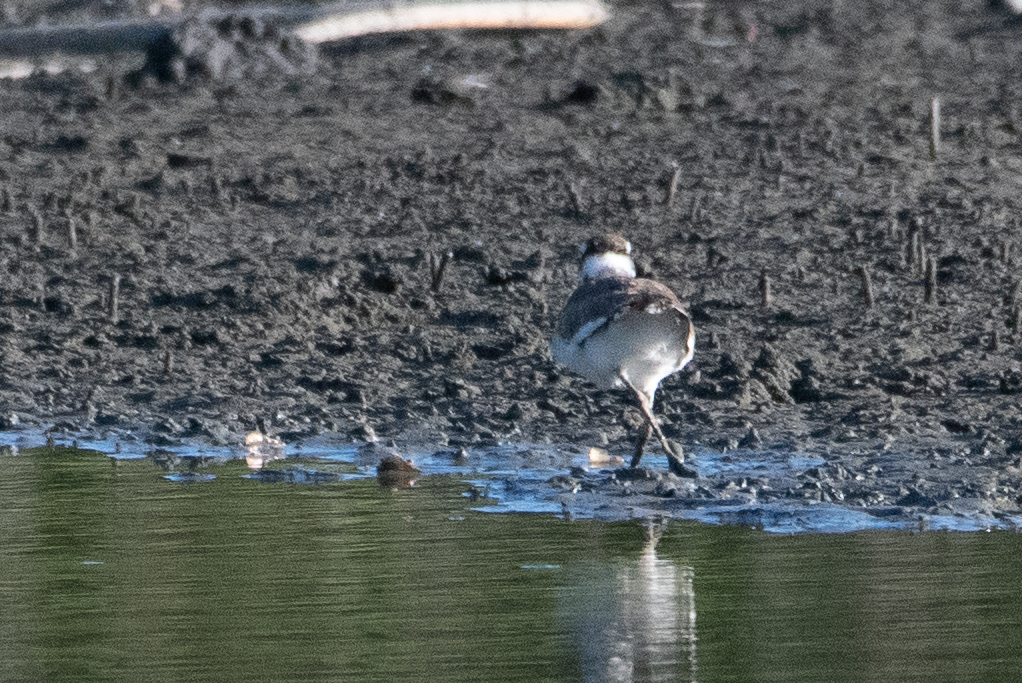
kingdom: Animalia
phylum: Chordata
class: Aves
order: Charadriiformes
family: Charadriidae
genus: Charadrius
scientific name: Charadrius vociferus
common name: Killdeer
